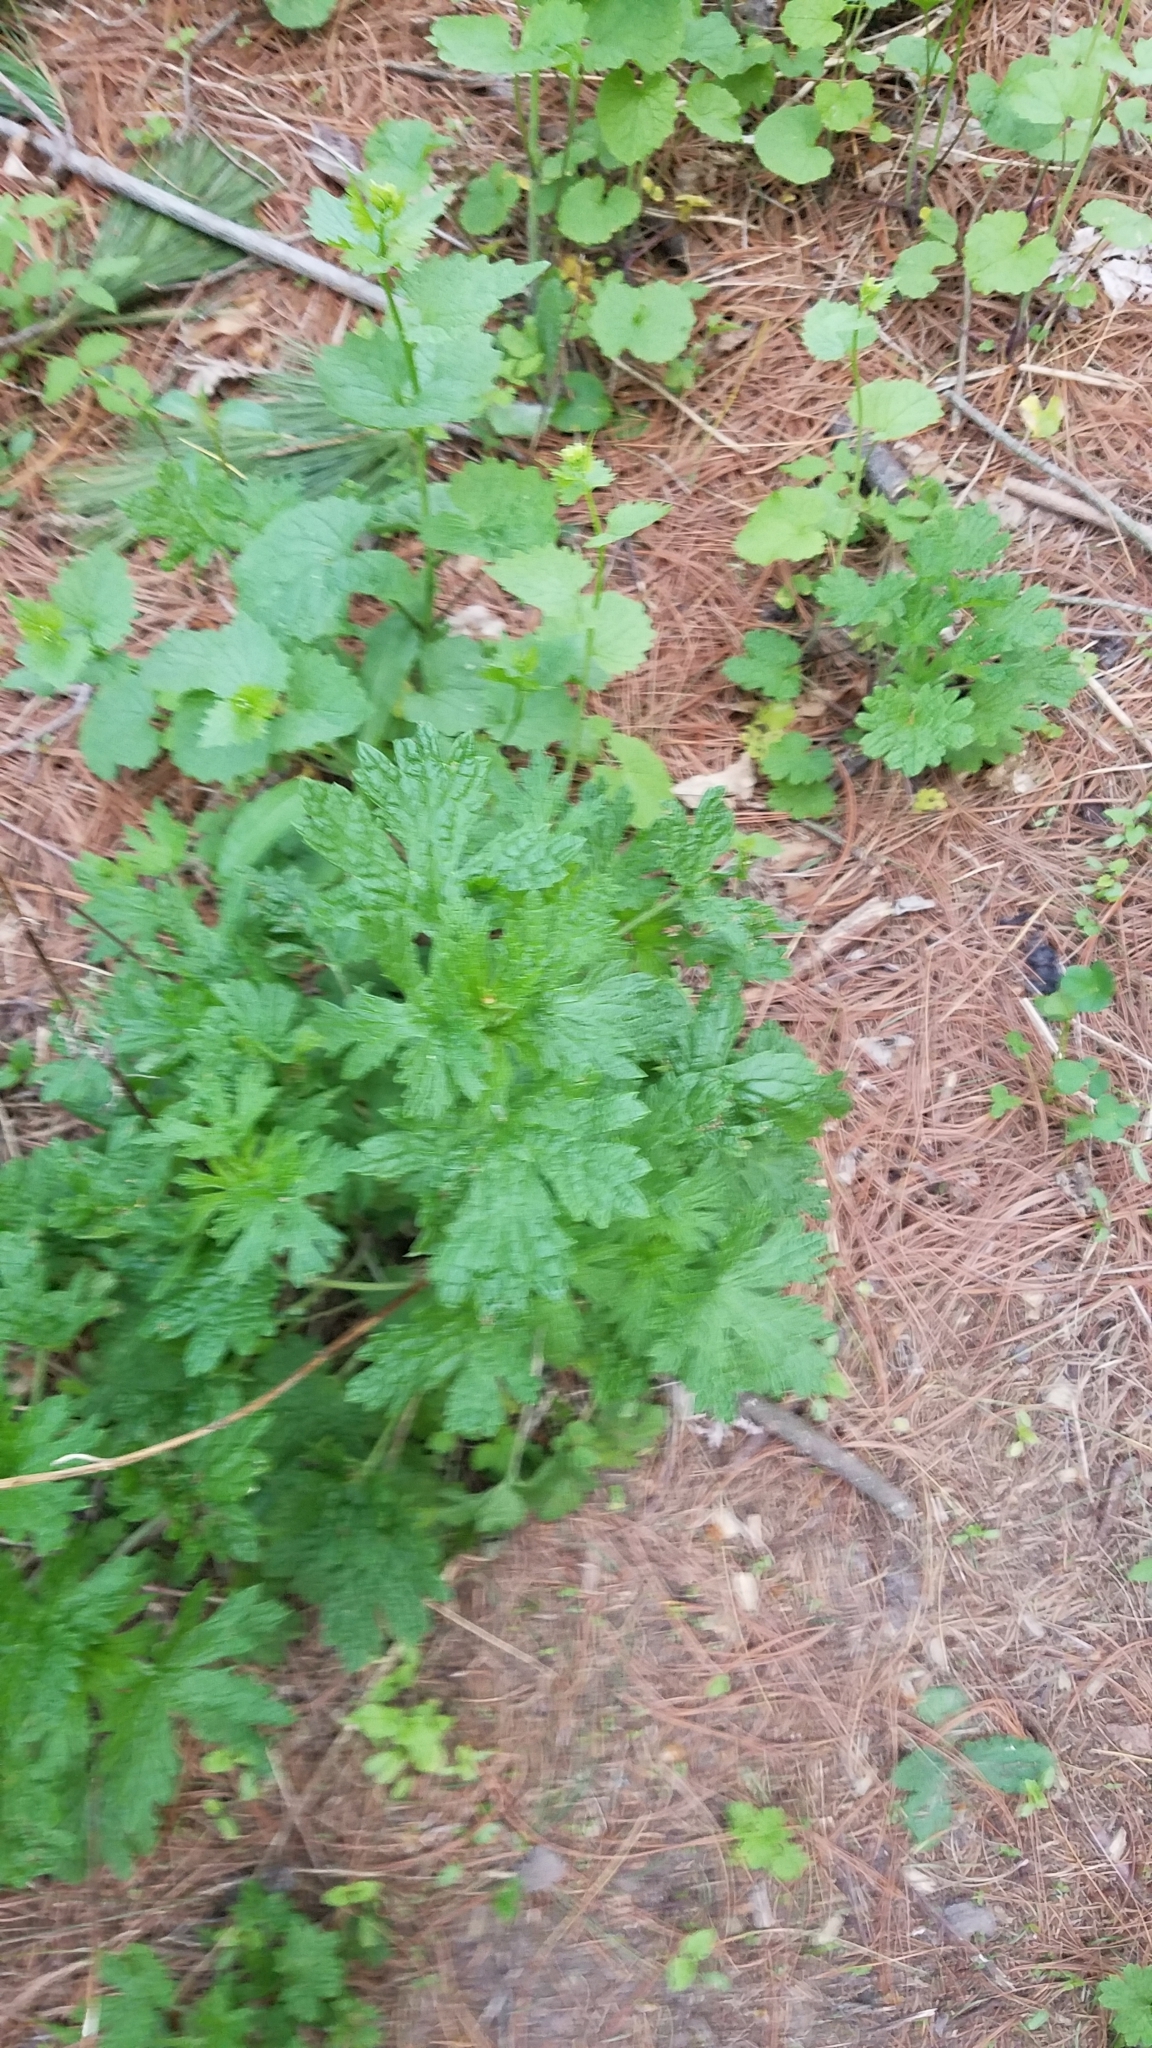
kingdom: Plantae
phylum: Tracheophyta
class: Magnoliopsida
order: Lamiales
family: Lamiaceae
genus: Leonurus
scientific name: Leonurus cardiaca
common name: Motherwort
